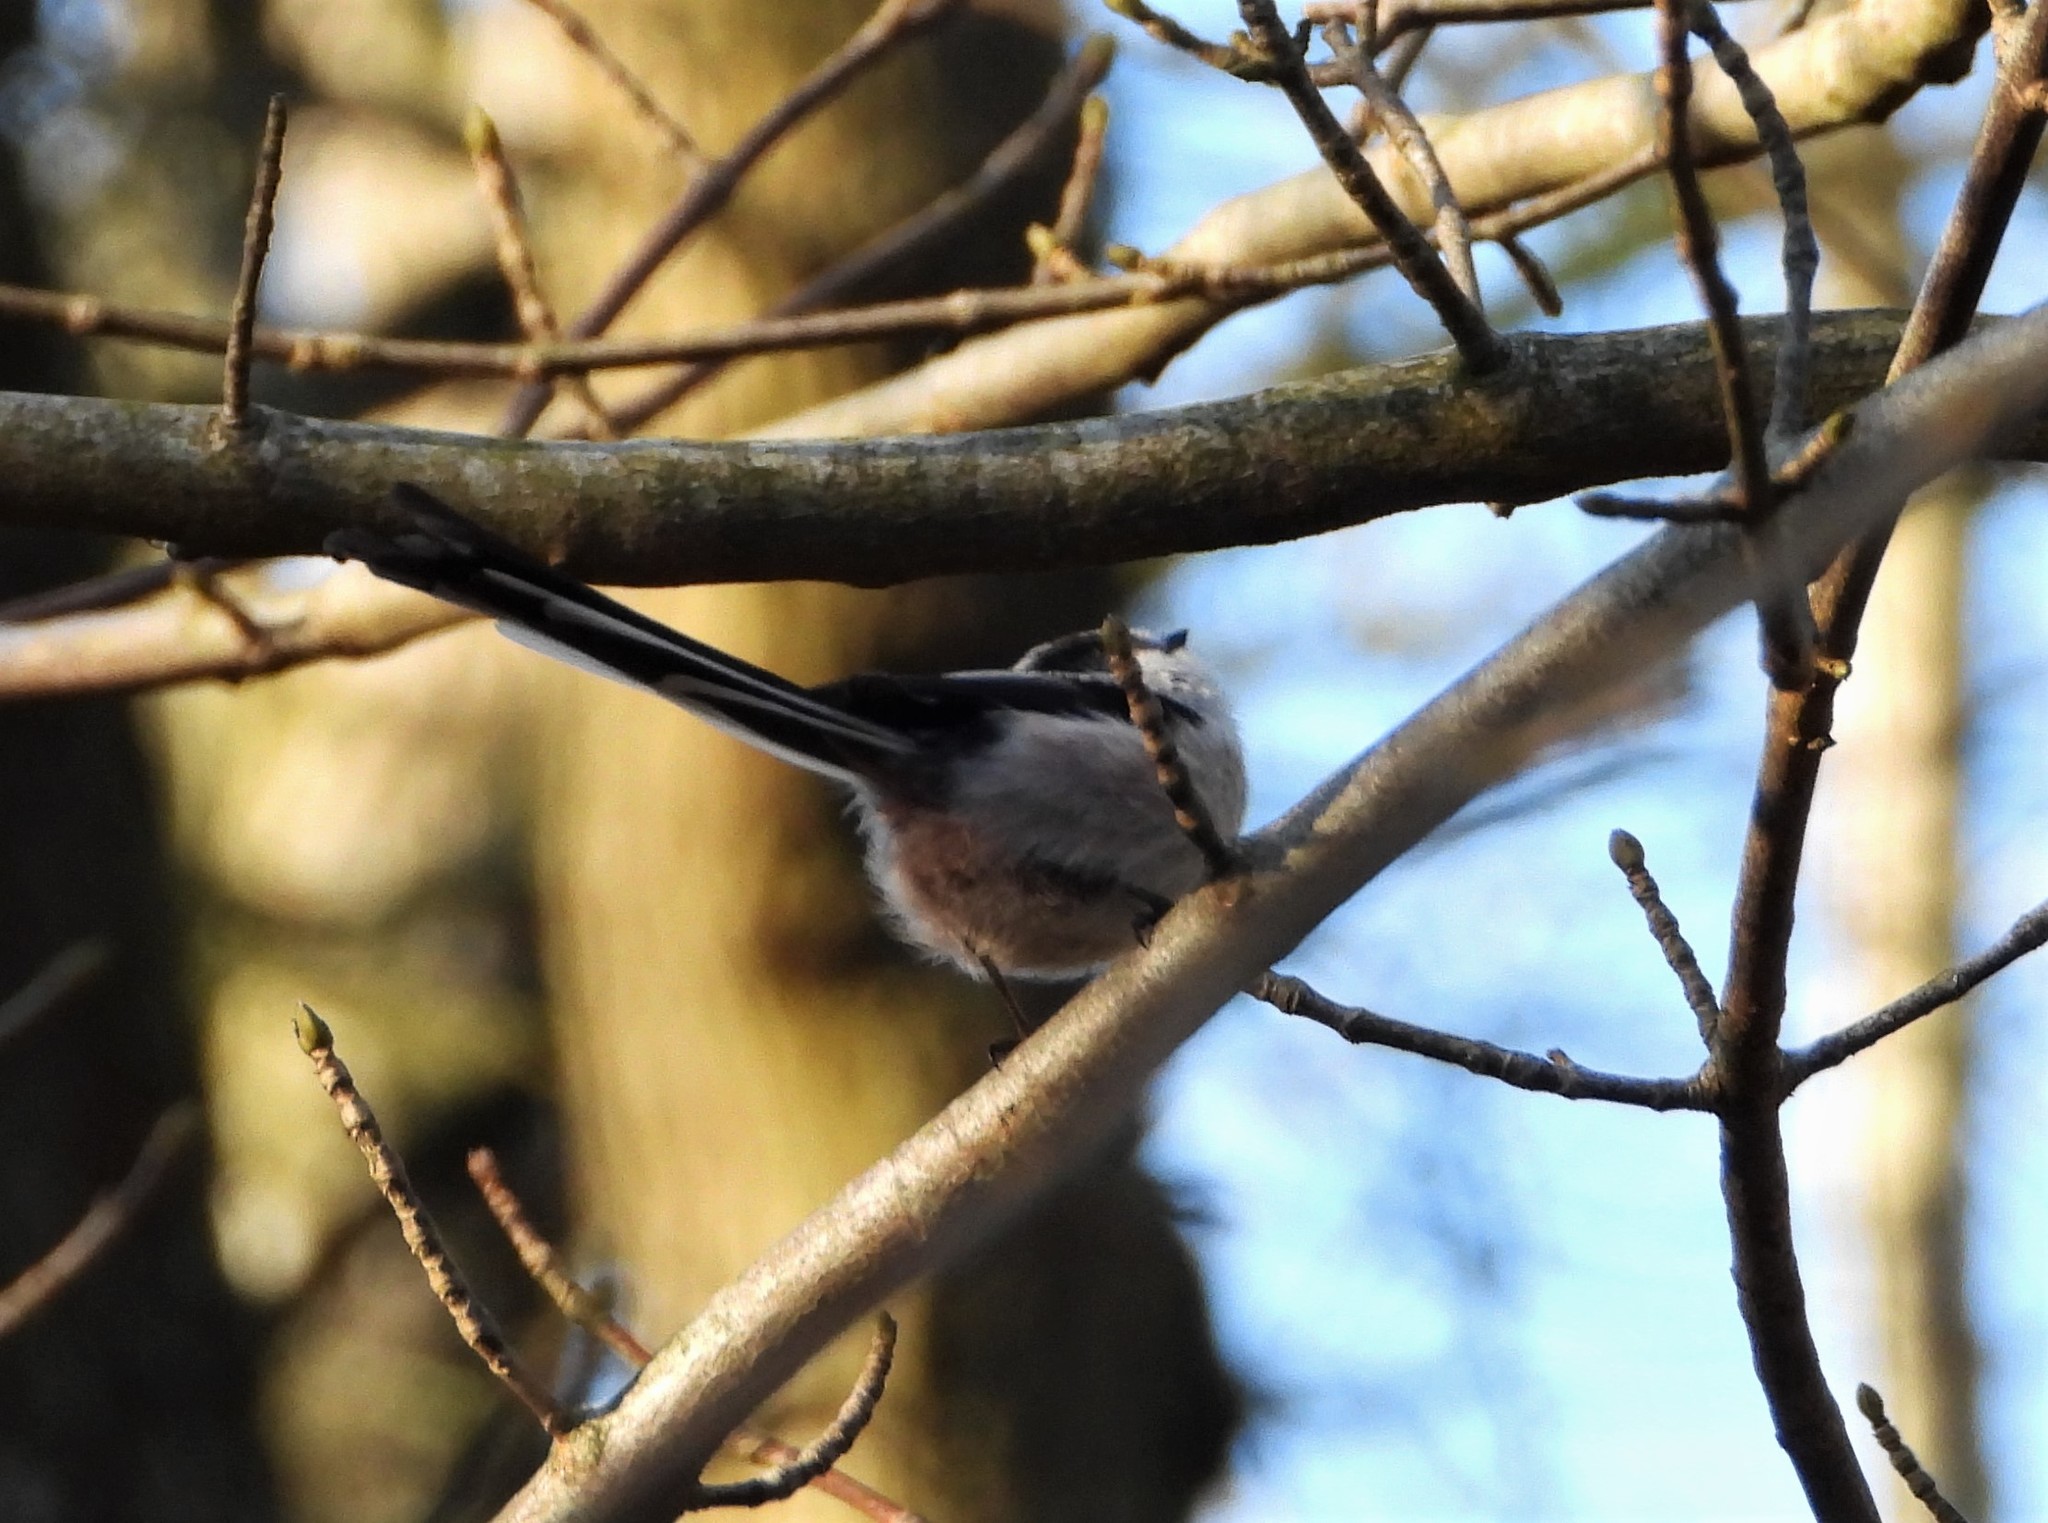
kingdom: Animalia
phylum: Chordata
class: Aves
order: Passeriformes
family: Aegithalidae
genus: Aegithalos
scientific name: Aegithalos caudatus
